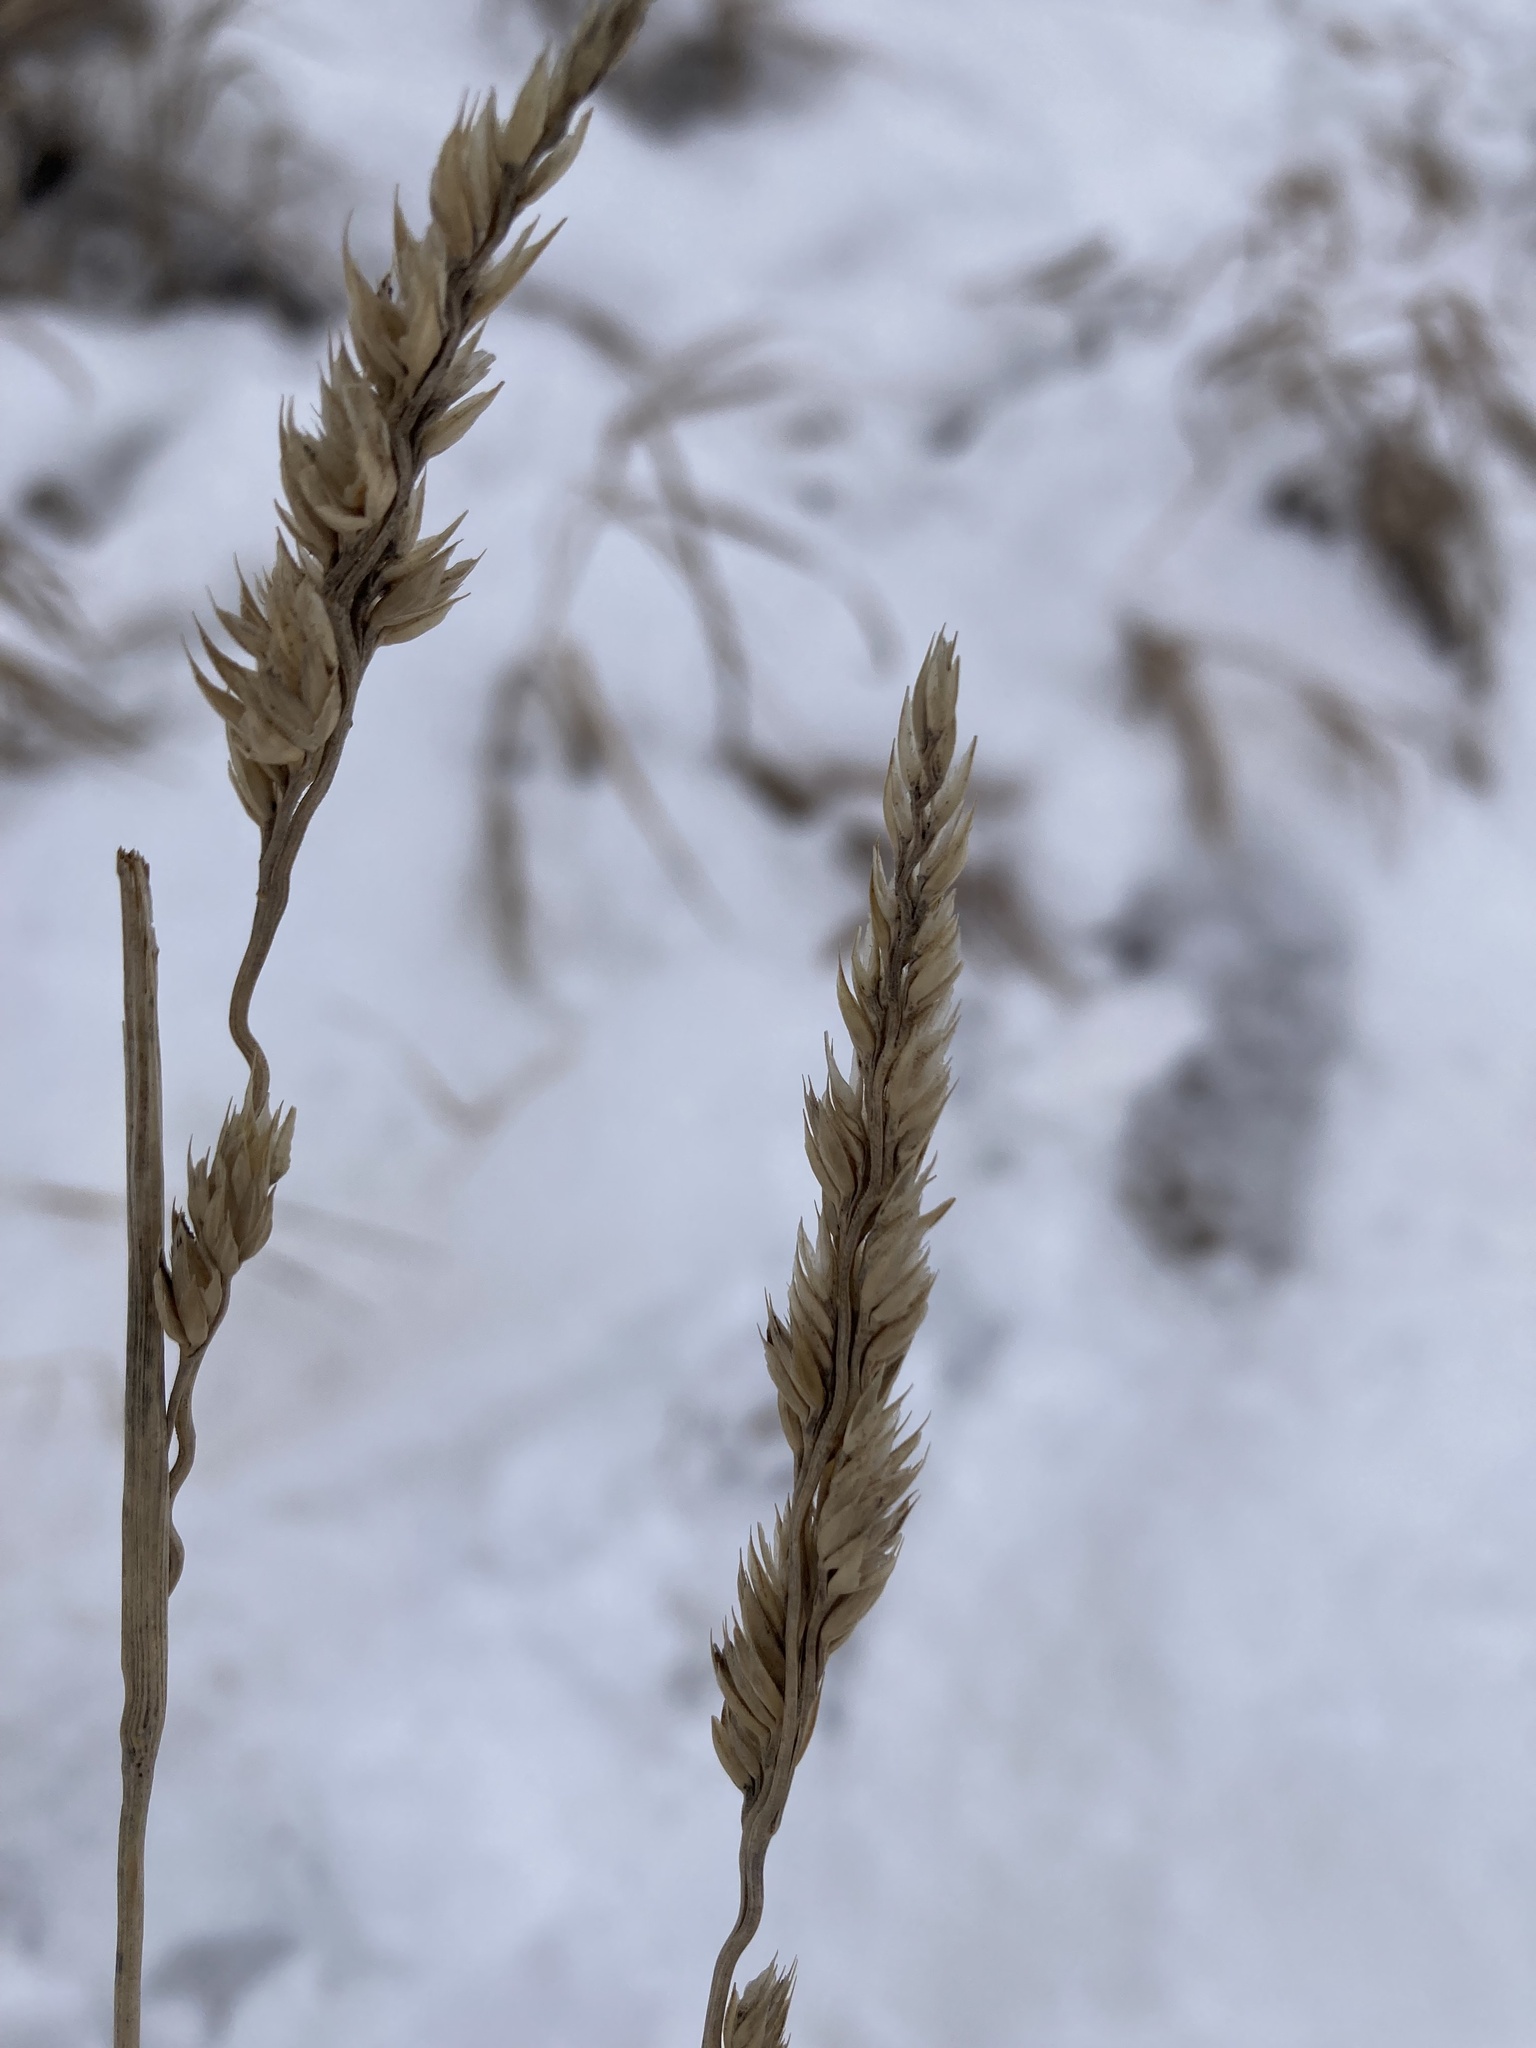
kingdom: Plantae
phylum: Tracheophyta
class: Liliopsida
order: Poales
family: Poaceae
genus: Dactylis
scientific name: Dactylis glomerata
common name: Orchardgrass
